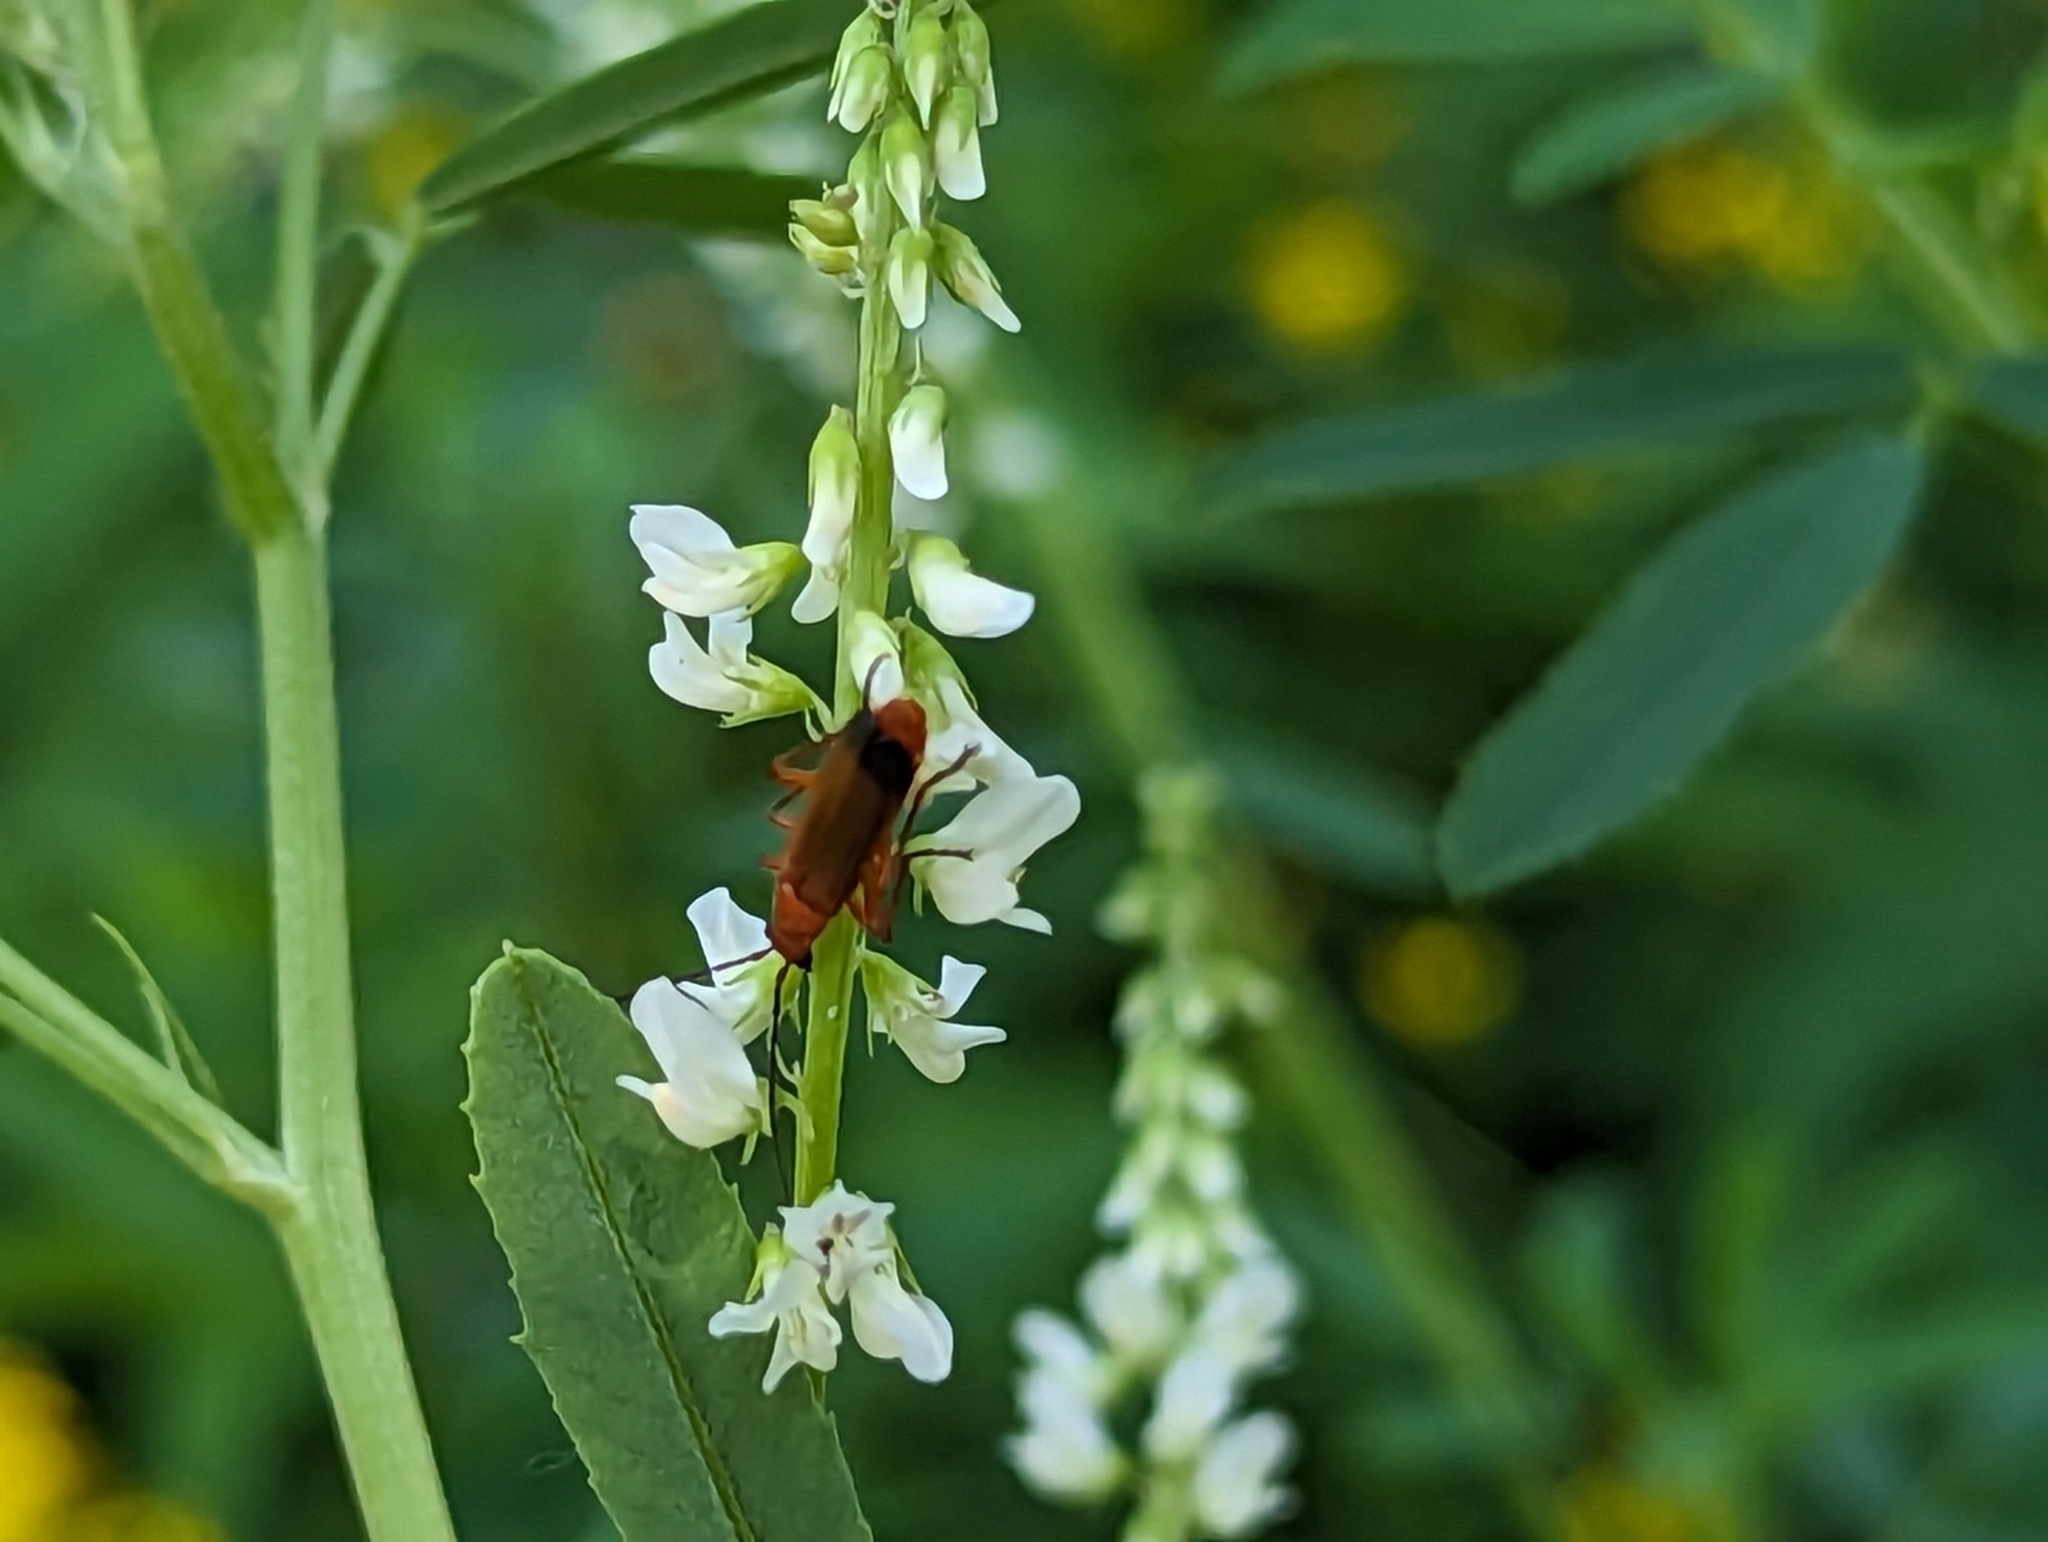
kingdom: Animalia
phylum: Arthropoda
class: Insecta
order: Coleoptera
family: Cantharidae
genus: Rhagonycha
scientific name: Rhagonycha fulva
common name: Common red soldier beetle
